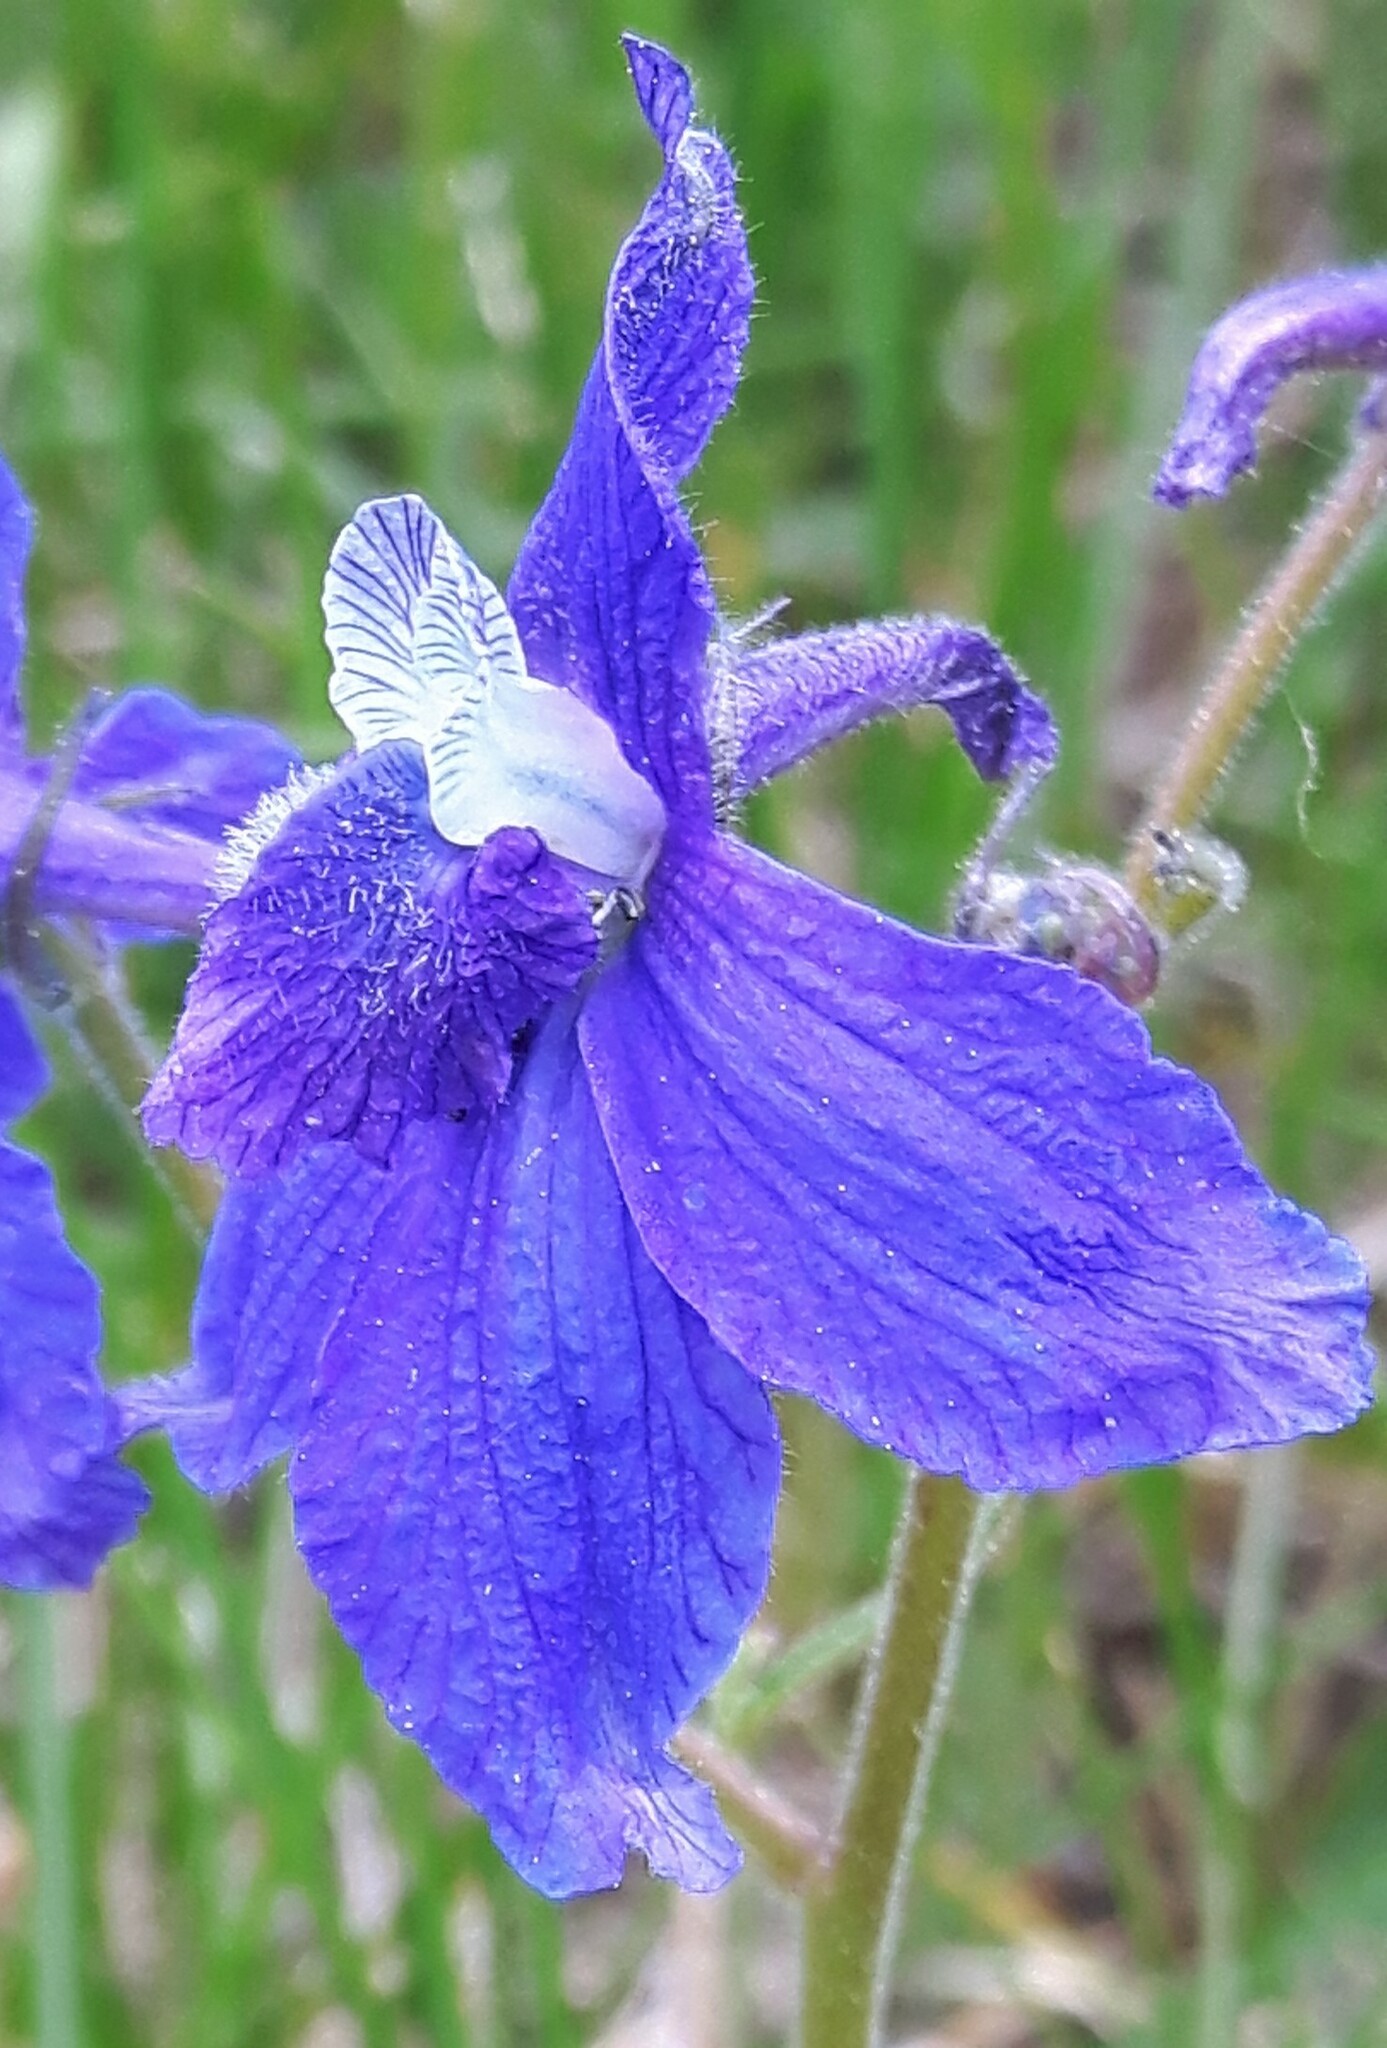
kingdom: Plantae
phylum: Tracheophyta
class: Magnoliopsida
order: Ranunculales
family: Ranunculaceae
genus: Delphinium
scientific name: Delphinium bicolor
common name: Low larkspur
